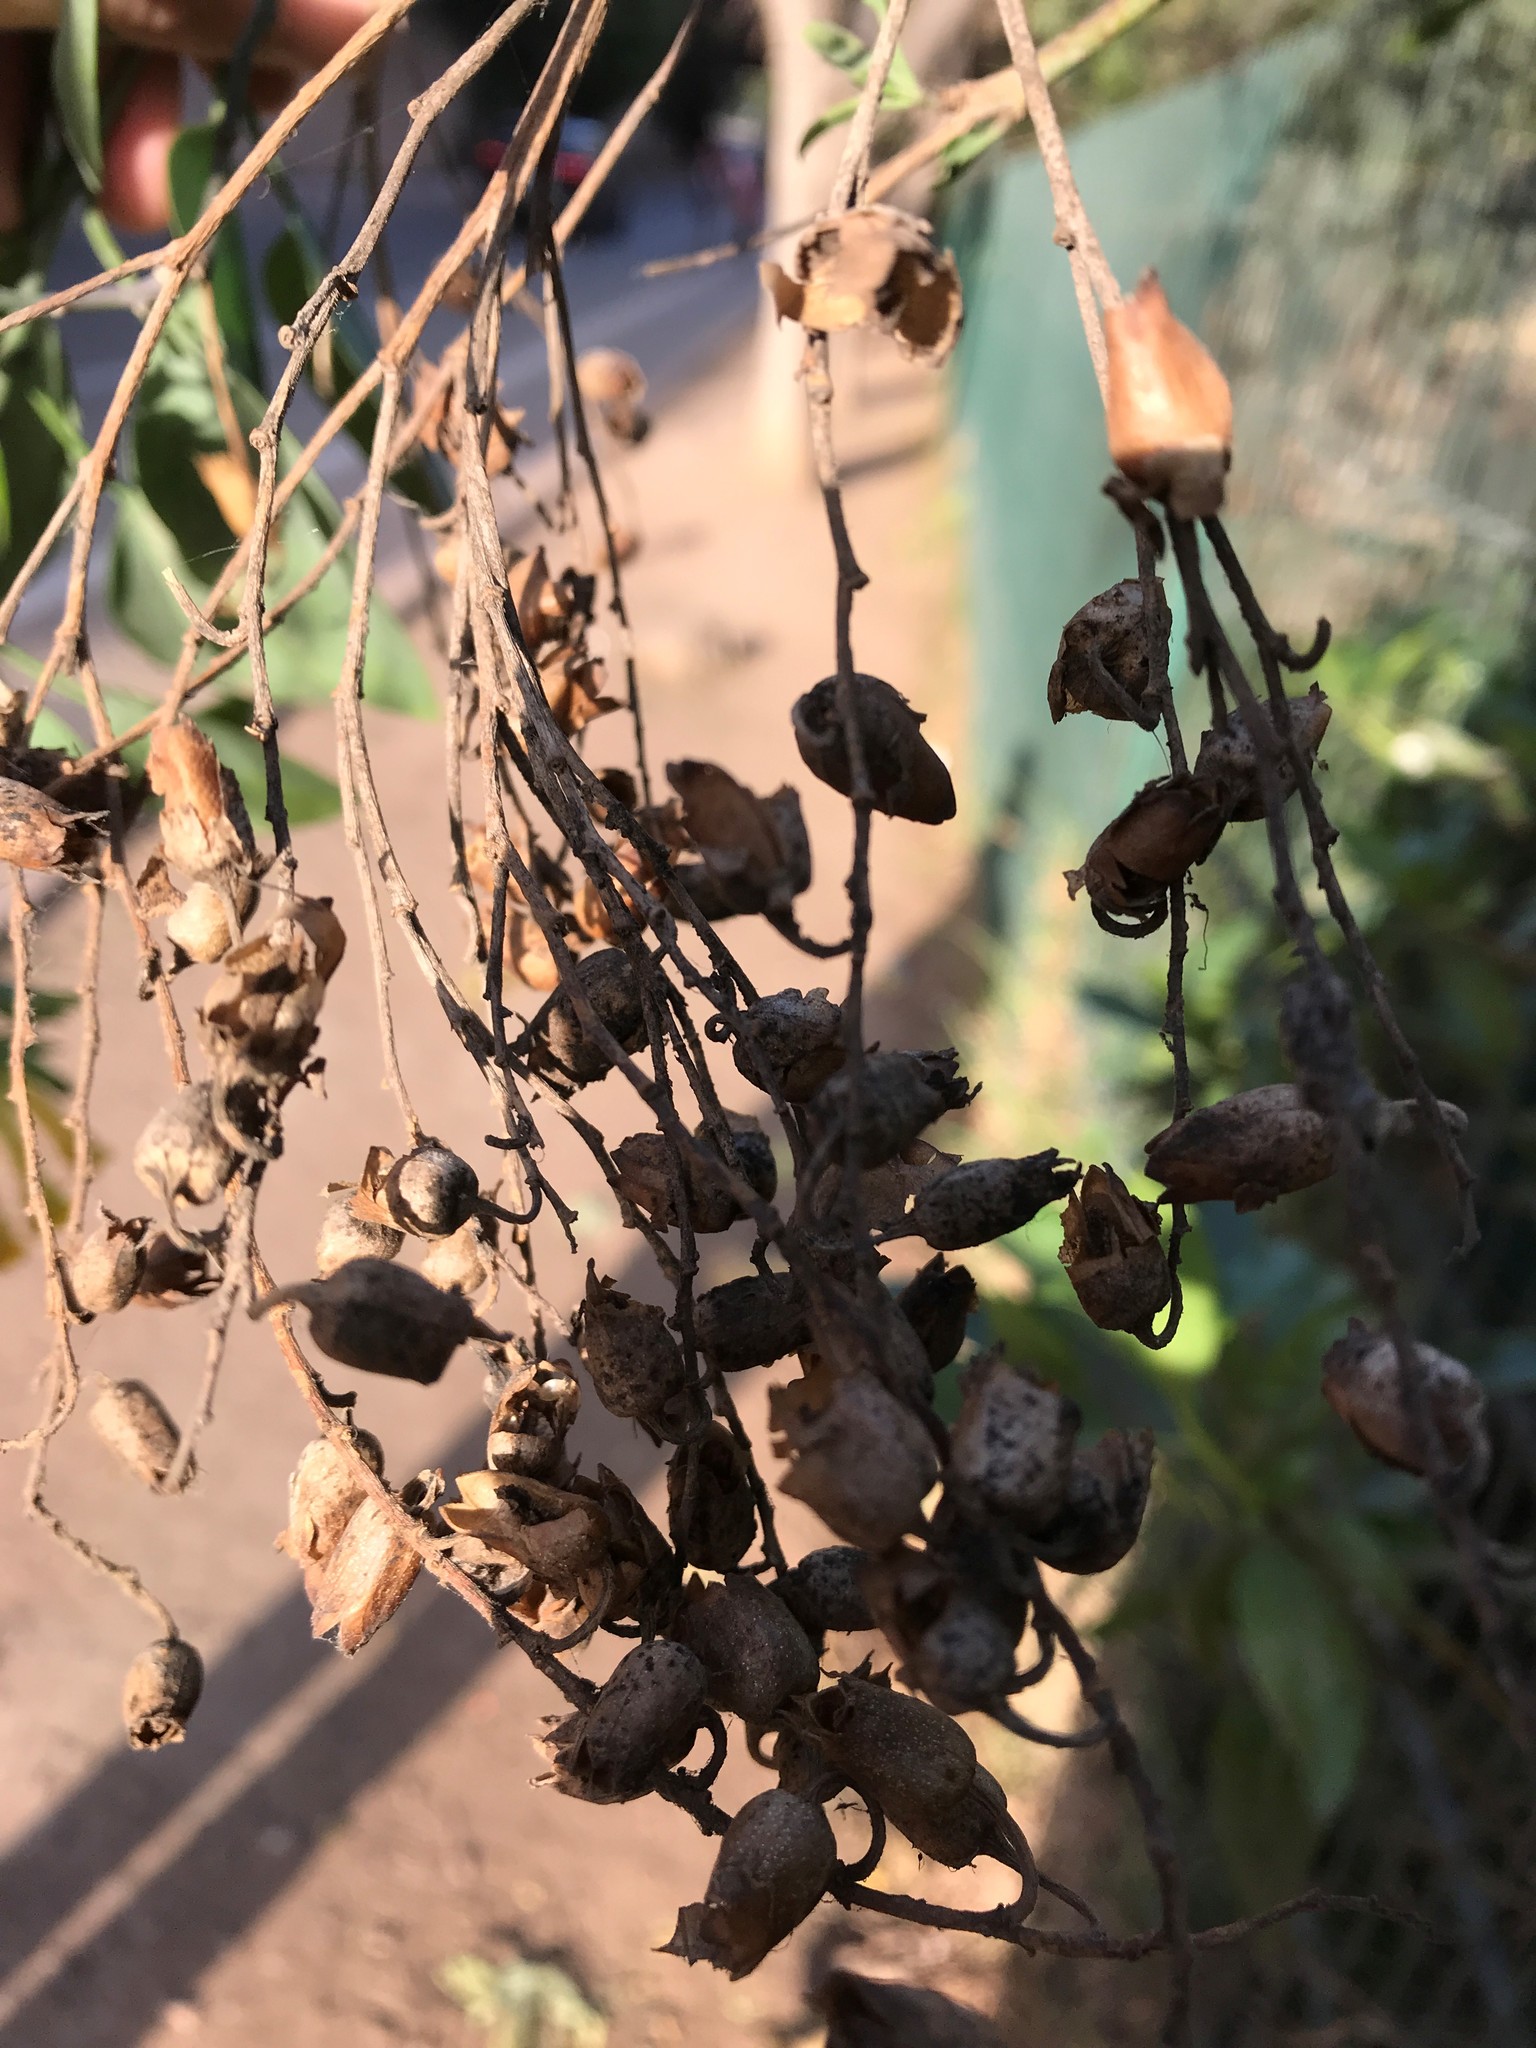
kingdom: Plantae
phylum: Tracheophyta
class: Magnoliopsida
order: Solanales
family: Solanaceae
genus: Nicotiana
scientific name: Nicotiana glauca
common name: Tree tobacco
